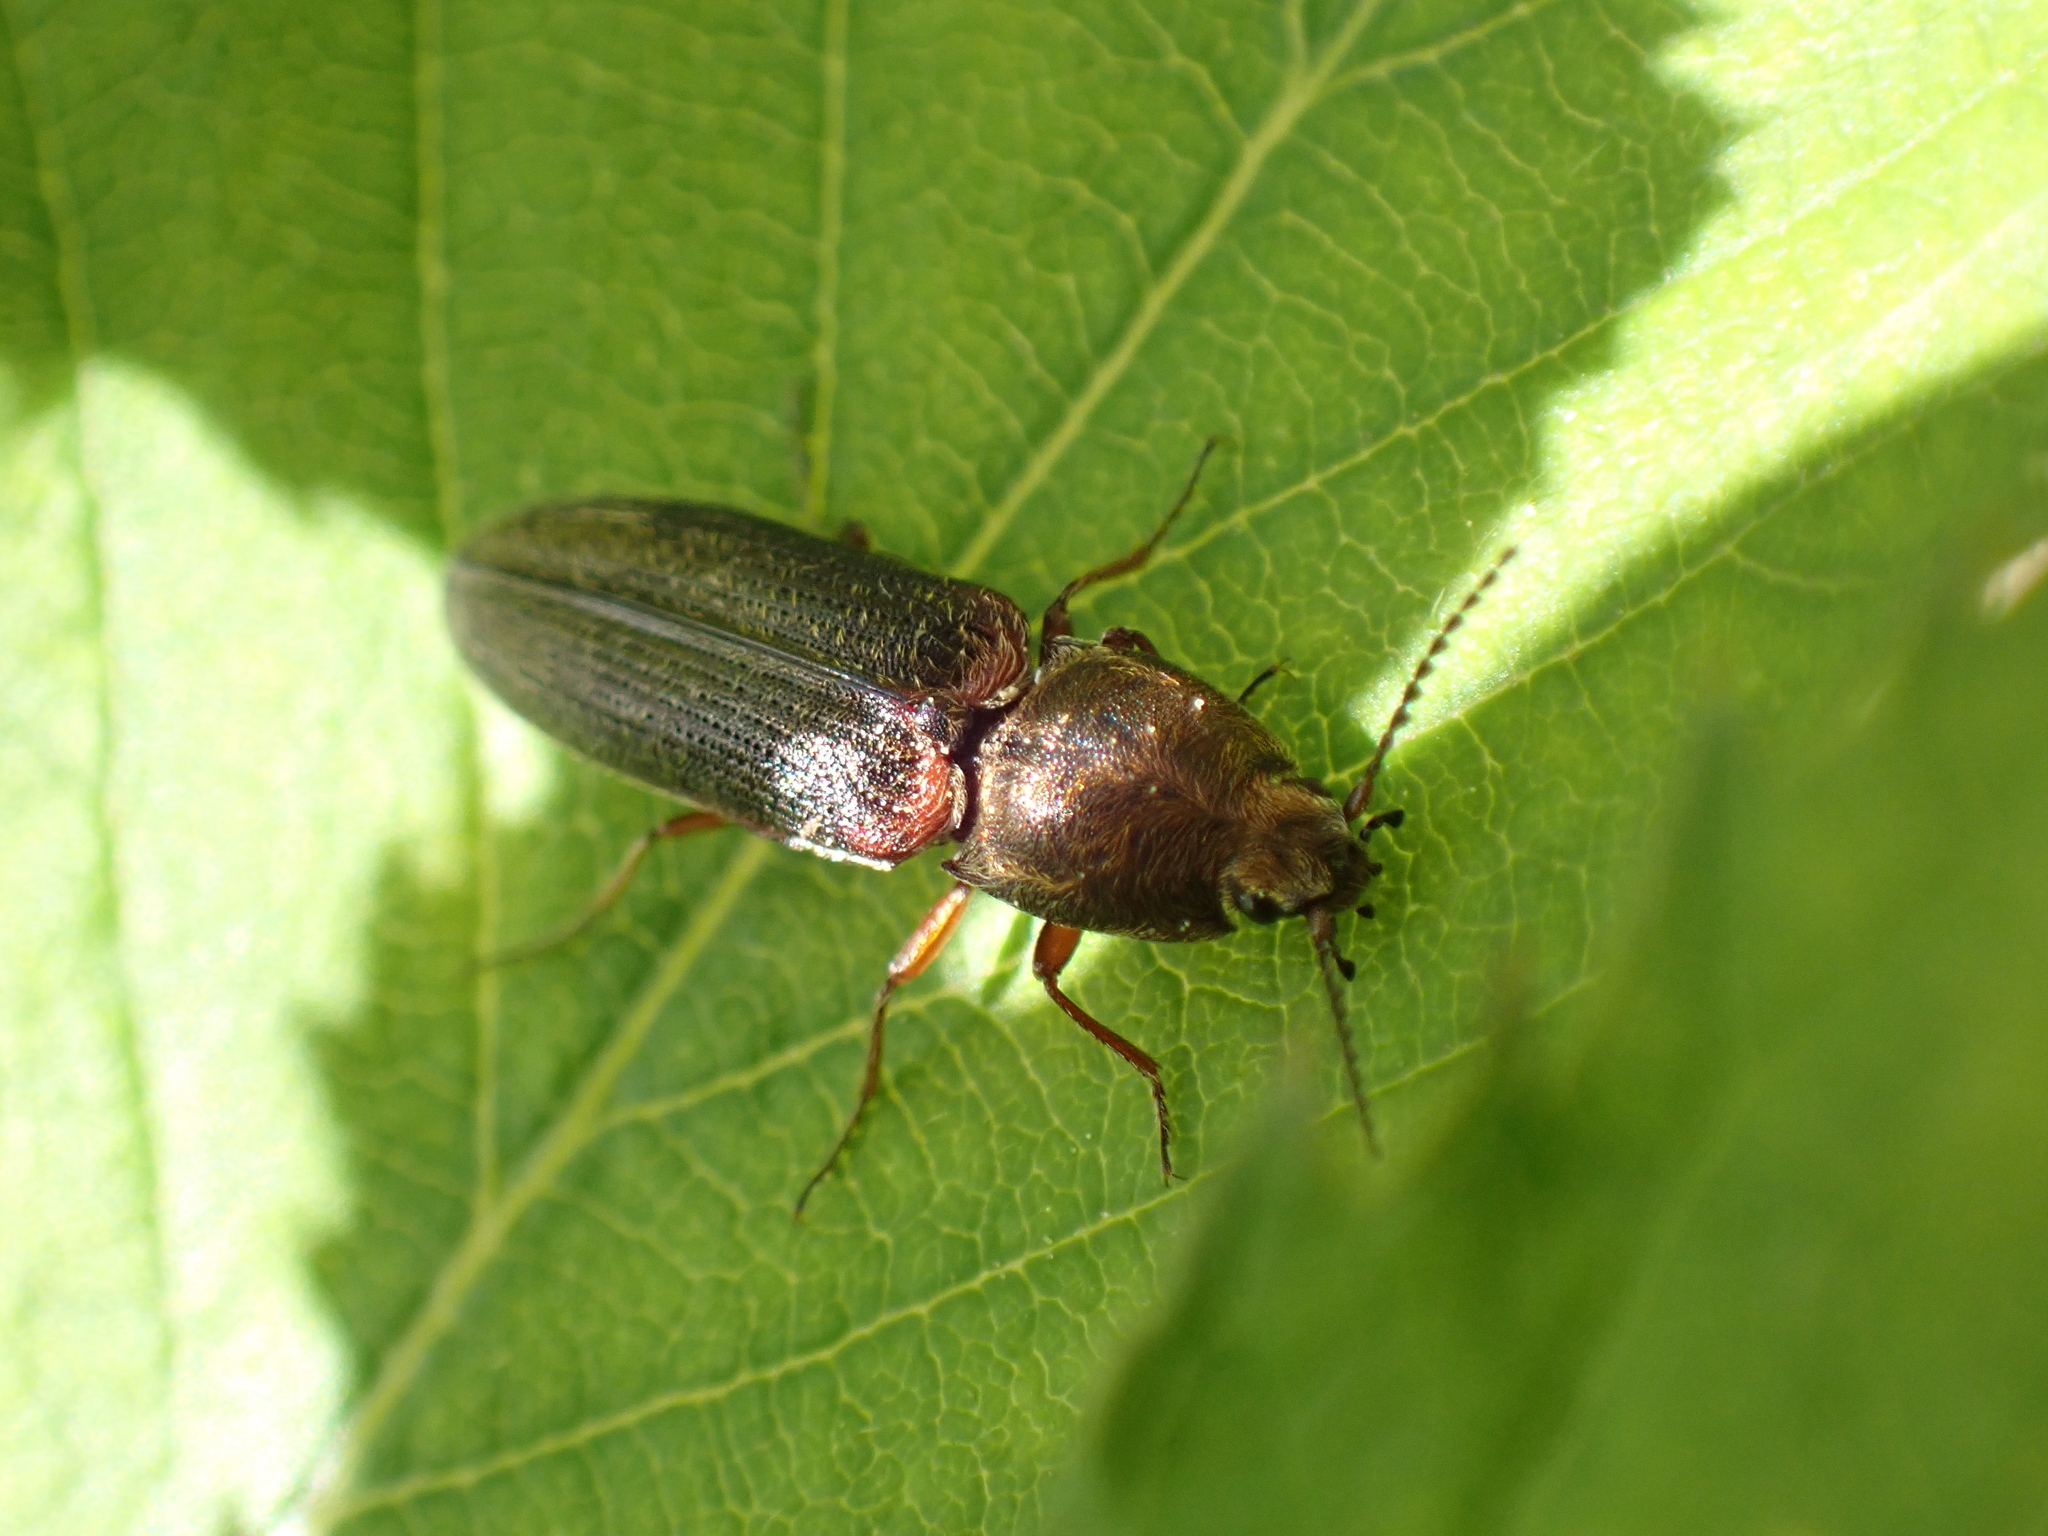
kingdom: Animalia
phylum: Arthropoda
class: Insecta
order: Coleoptera
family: Elateridae
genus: Limonius
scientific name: Limonius auripilis
